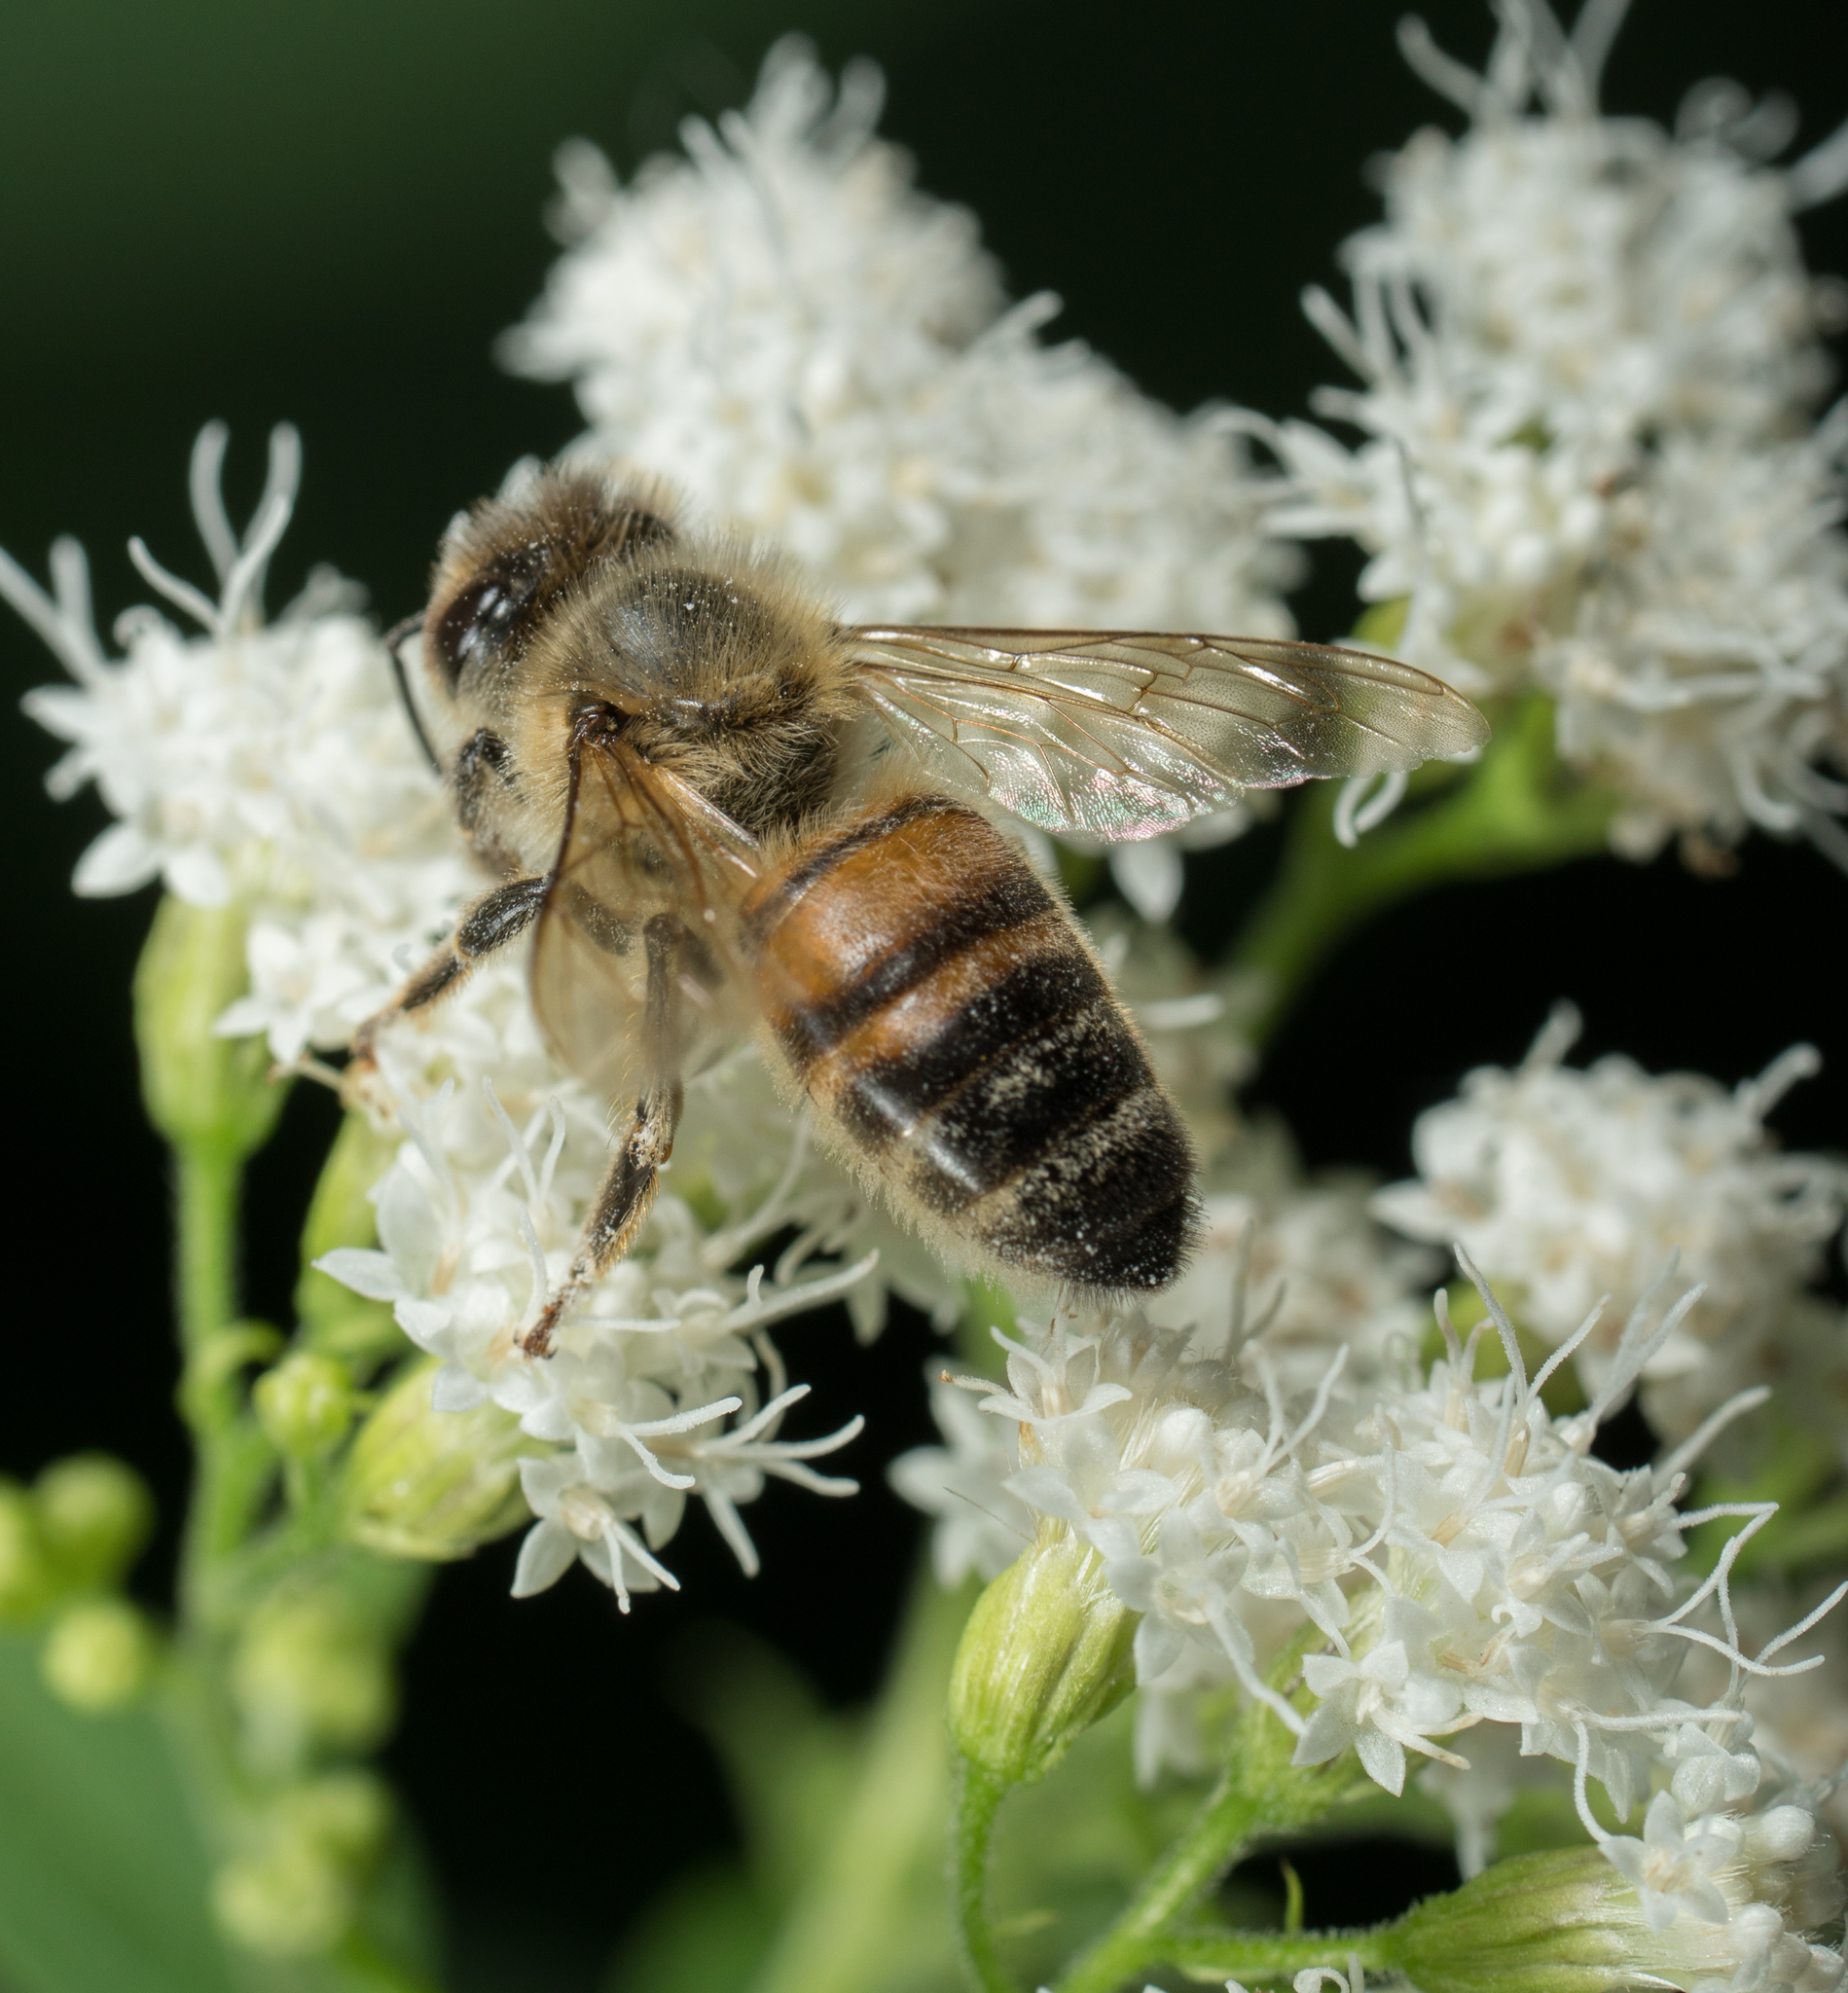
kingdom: Animalia
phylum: Arthropoda
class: Insecta
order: Hymenoptera
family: Apidae
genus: Apis
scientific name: Apis mellifera
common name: Honey bee
